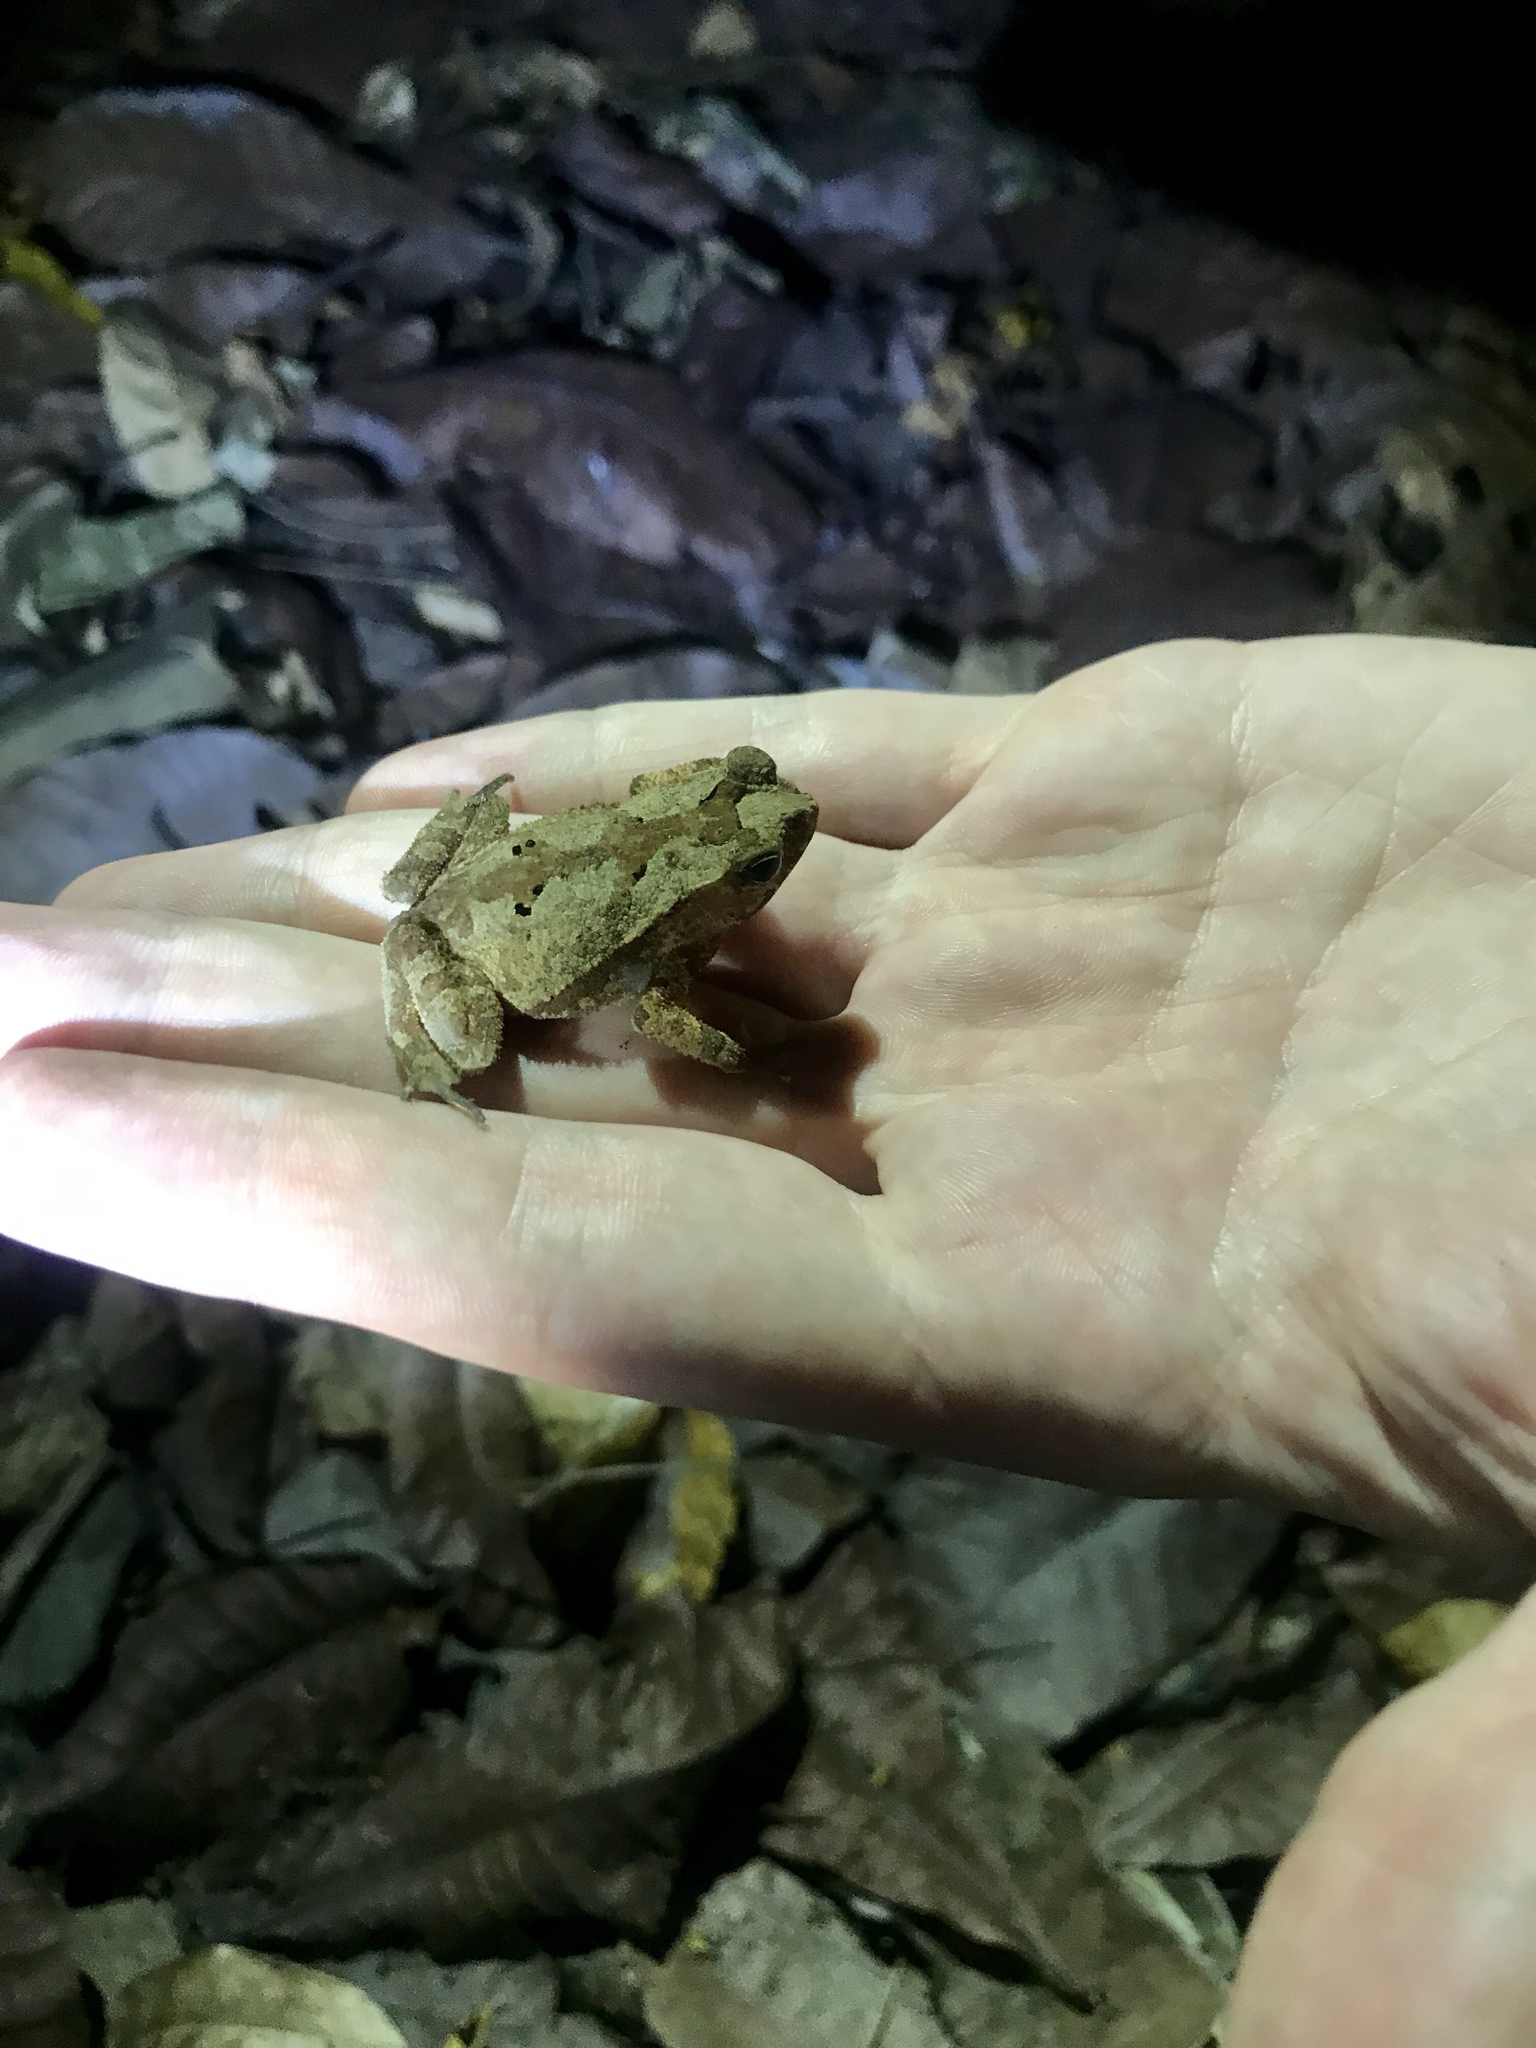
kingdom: Animalia
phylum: Chordata
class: Amphibia
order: Anura
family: Bufonidae
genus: Rhinella
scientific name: Rhinella alata
